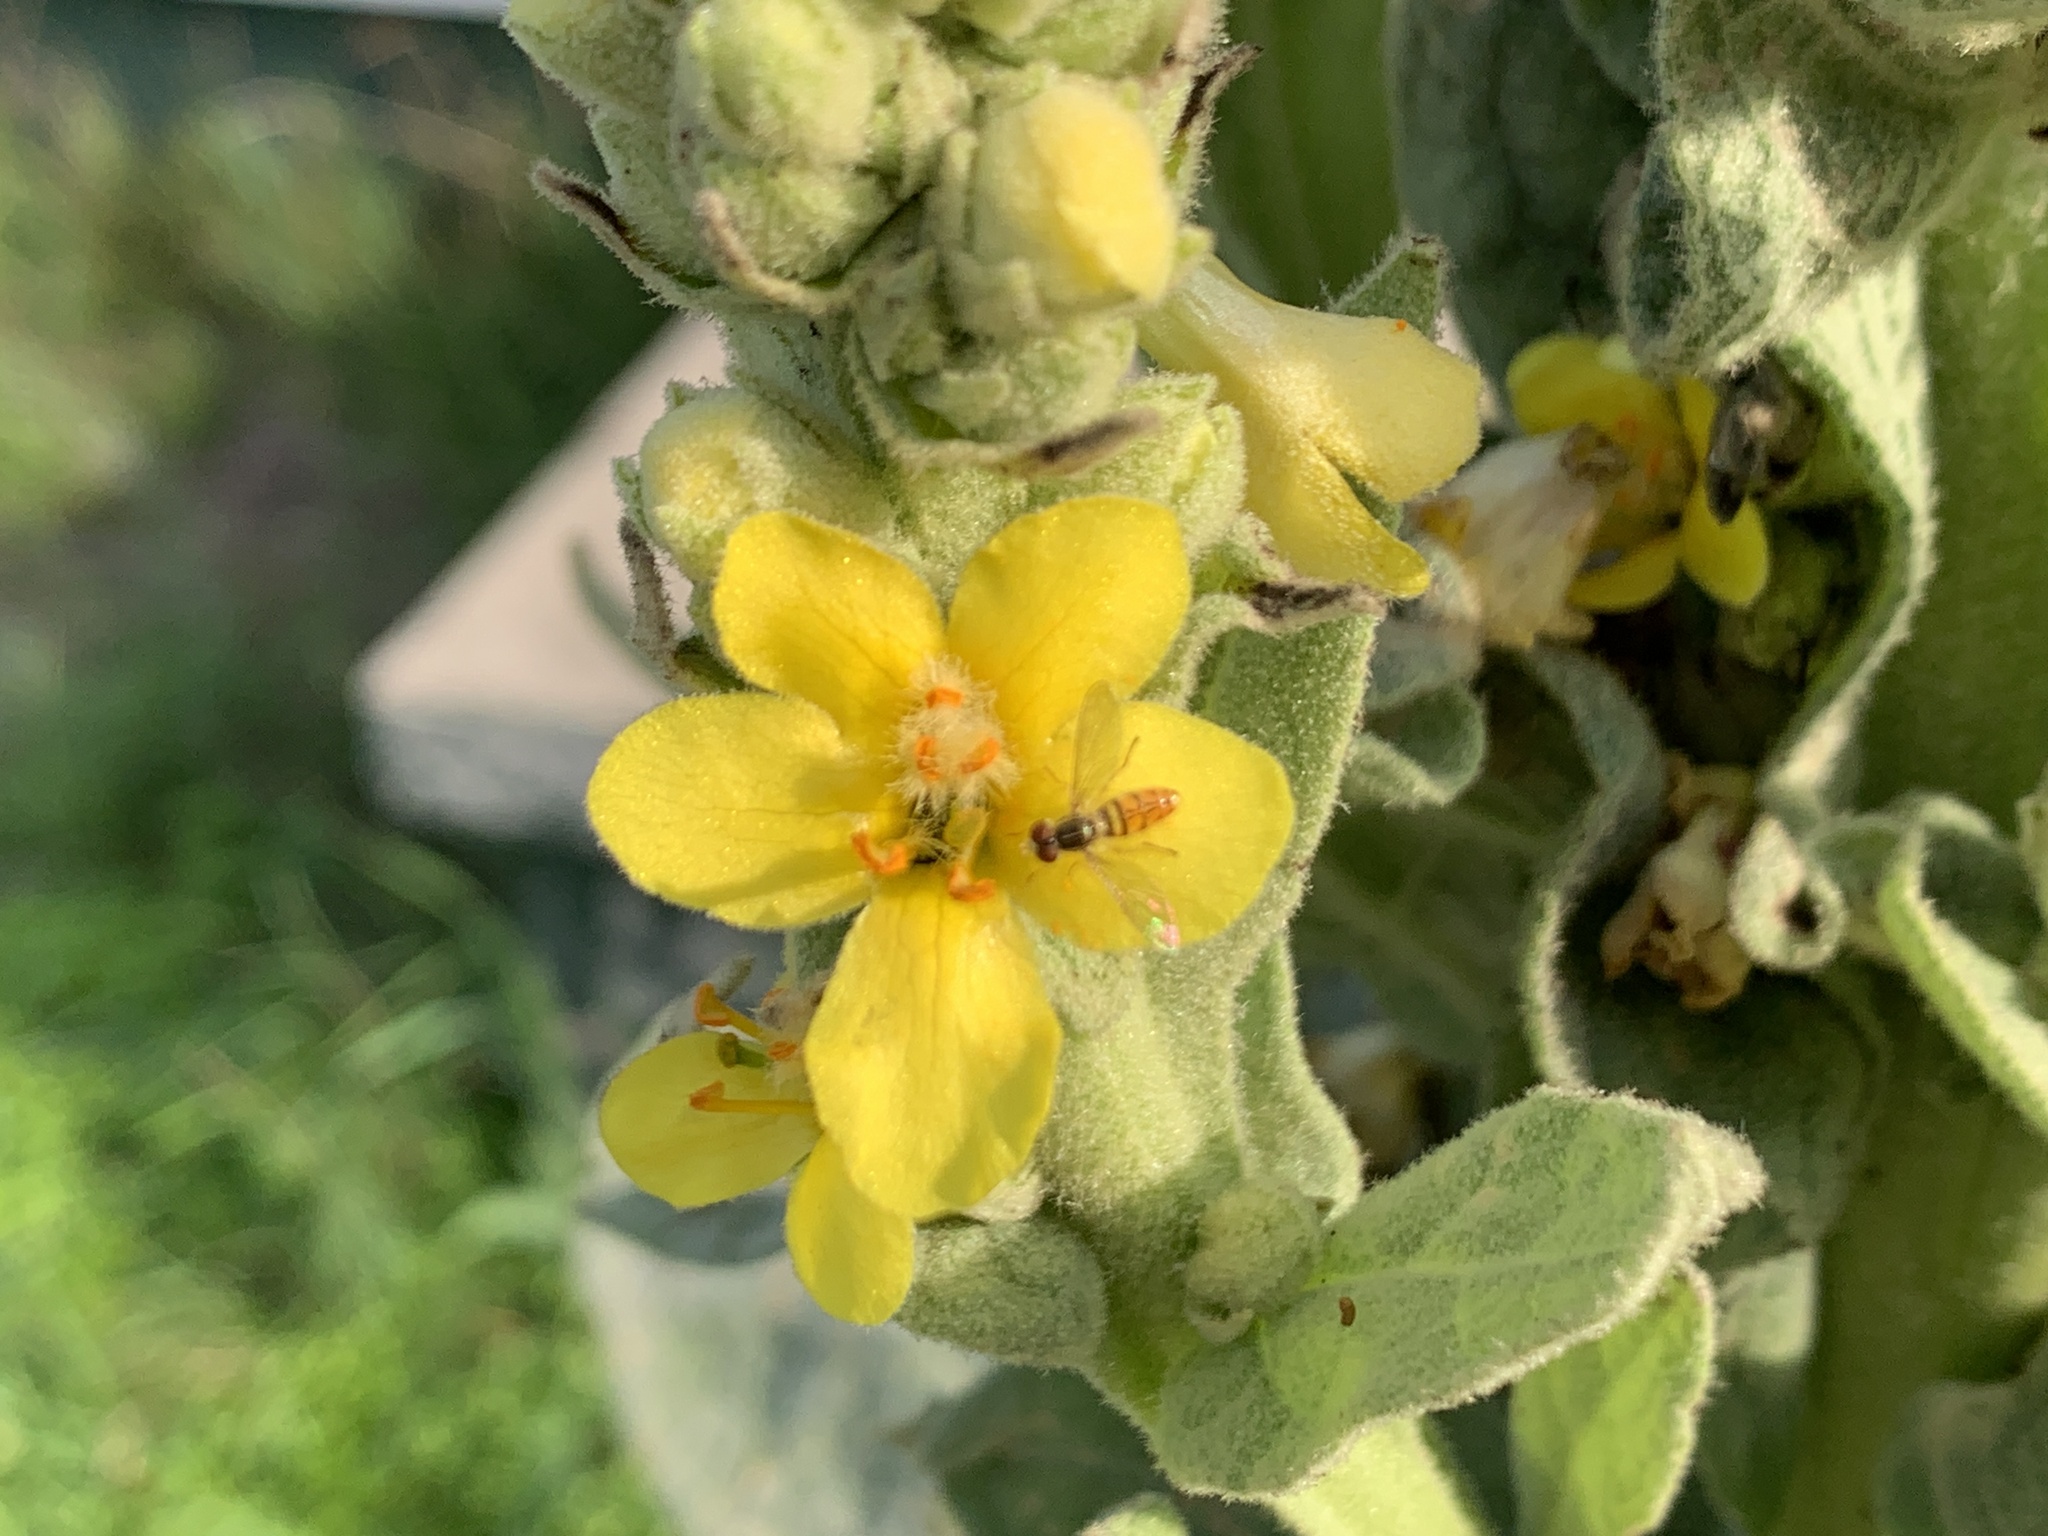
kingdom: Animalia
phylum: Arthropoda
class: Insecta
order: Diptera
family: Syrphidae
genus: Toxomerus
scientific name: Toxomerus marginatus
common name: Syrphid fly
